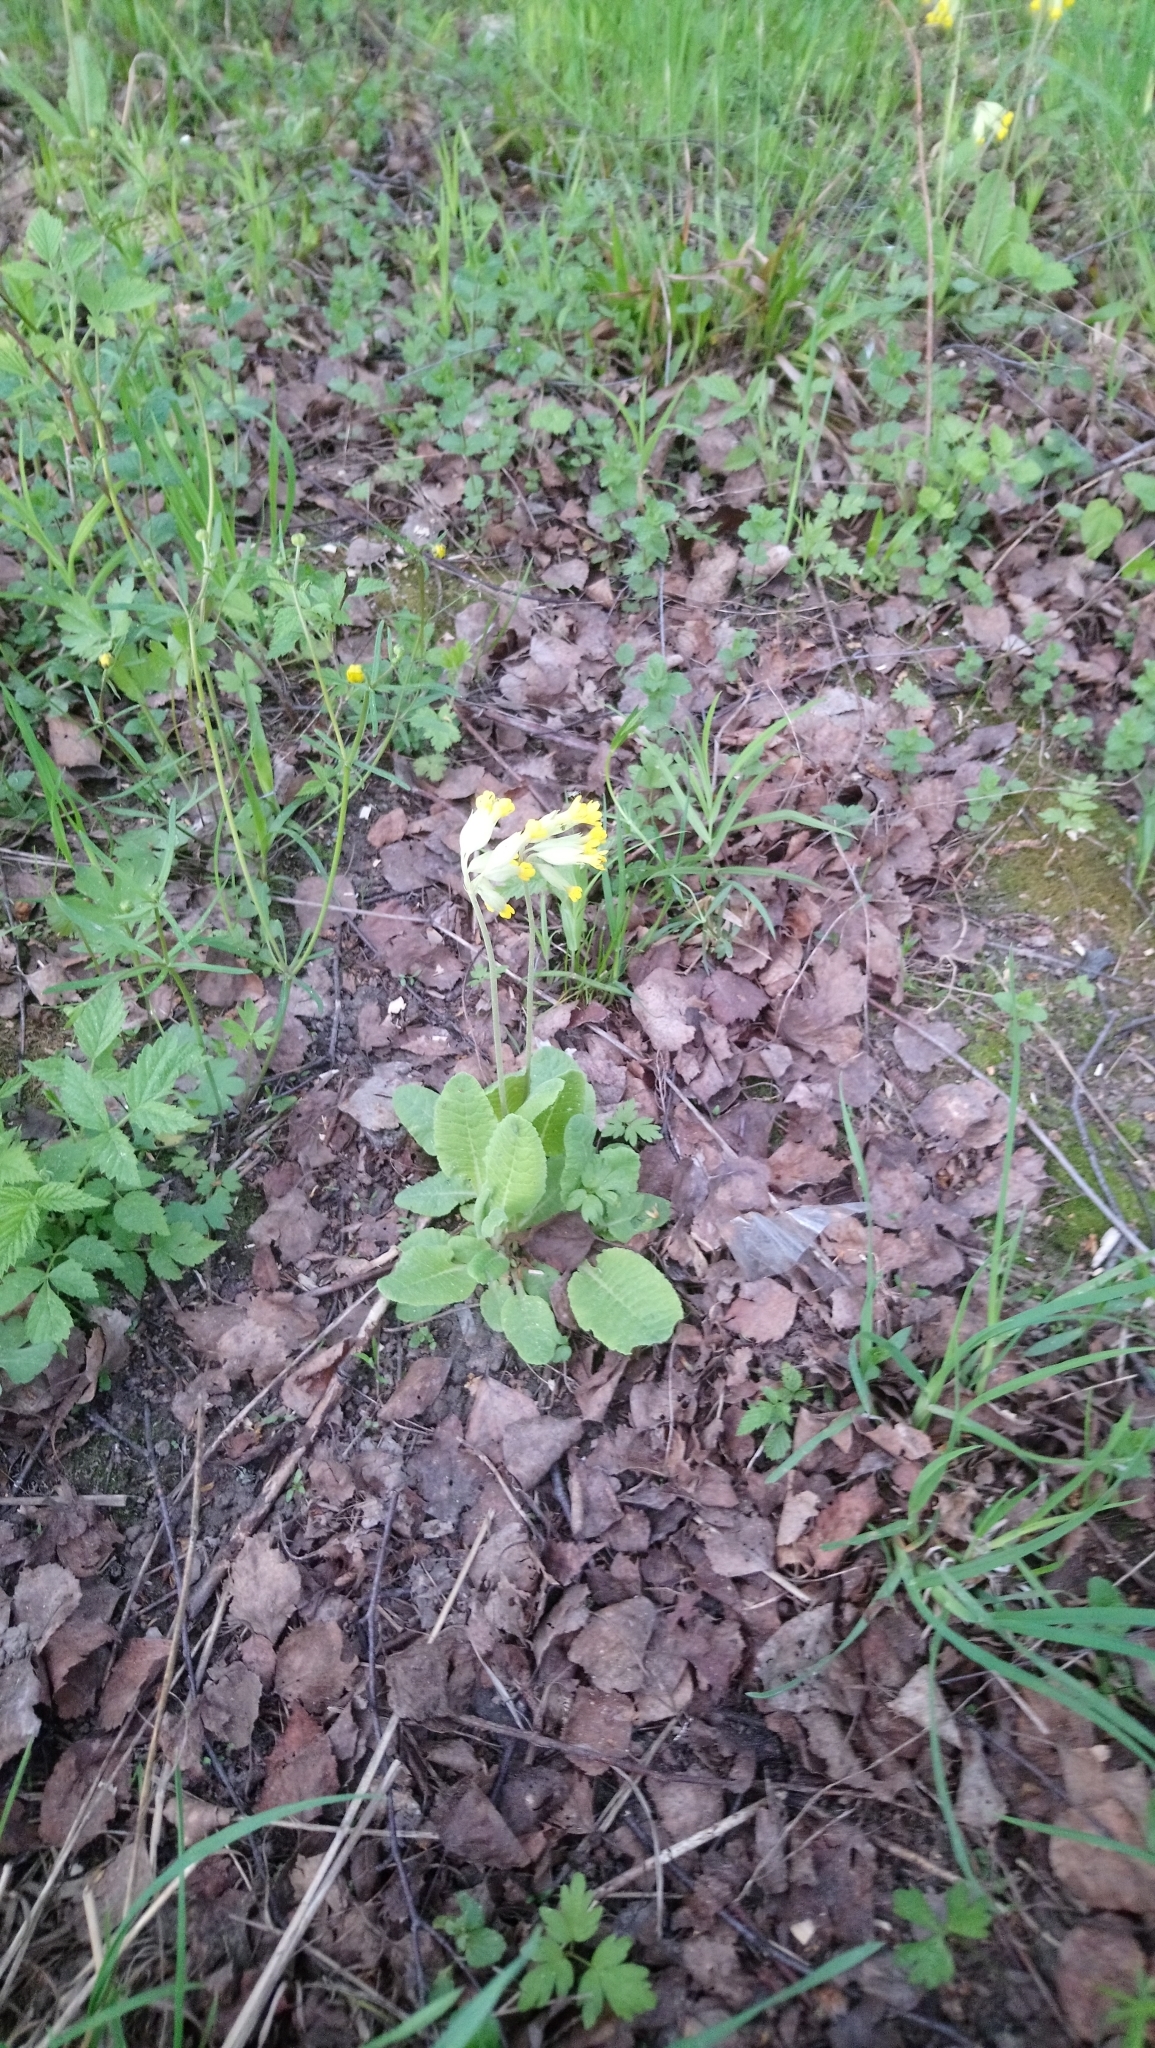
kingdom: Plantae
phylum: Tracheophyta
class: Magnoliopsida
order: Ericales
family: Primulaceae
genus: Primula
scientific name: Primula veris
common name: Cowslip
